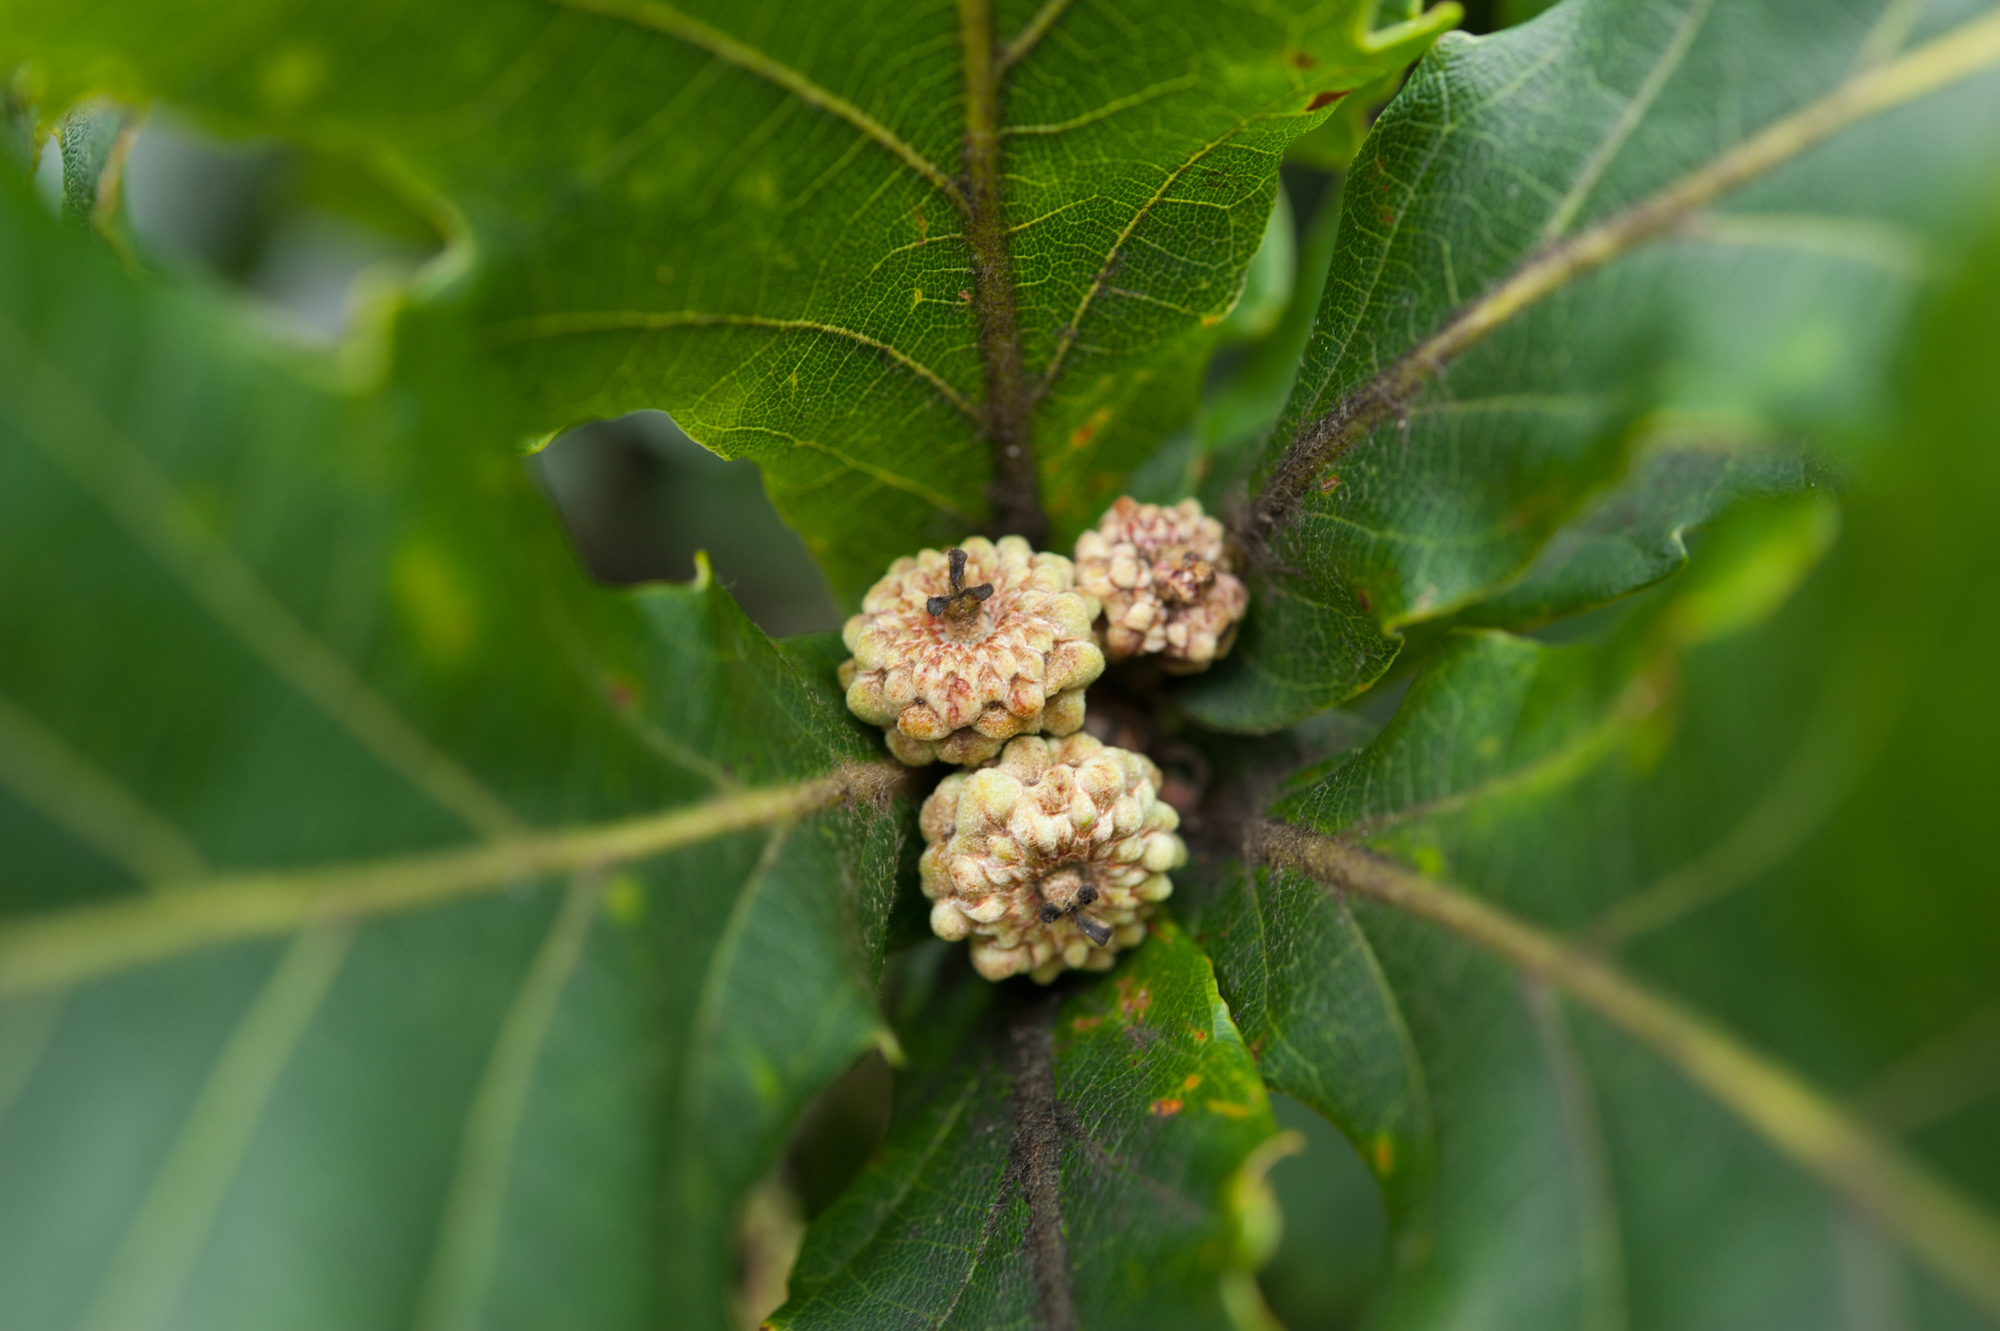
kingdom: Plantae
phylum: Tracheophyta
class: Magnoliopsida
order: Fagales
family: Fagaceae
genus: Quercus
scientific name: Quercus mongolica
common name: Mongolian oak
